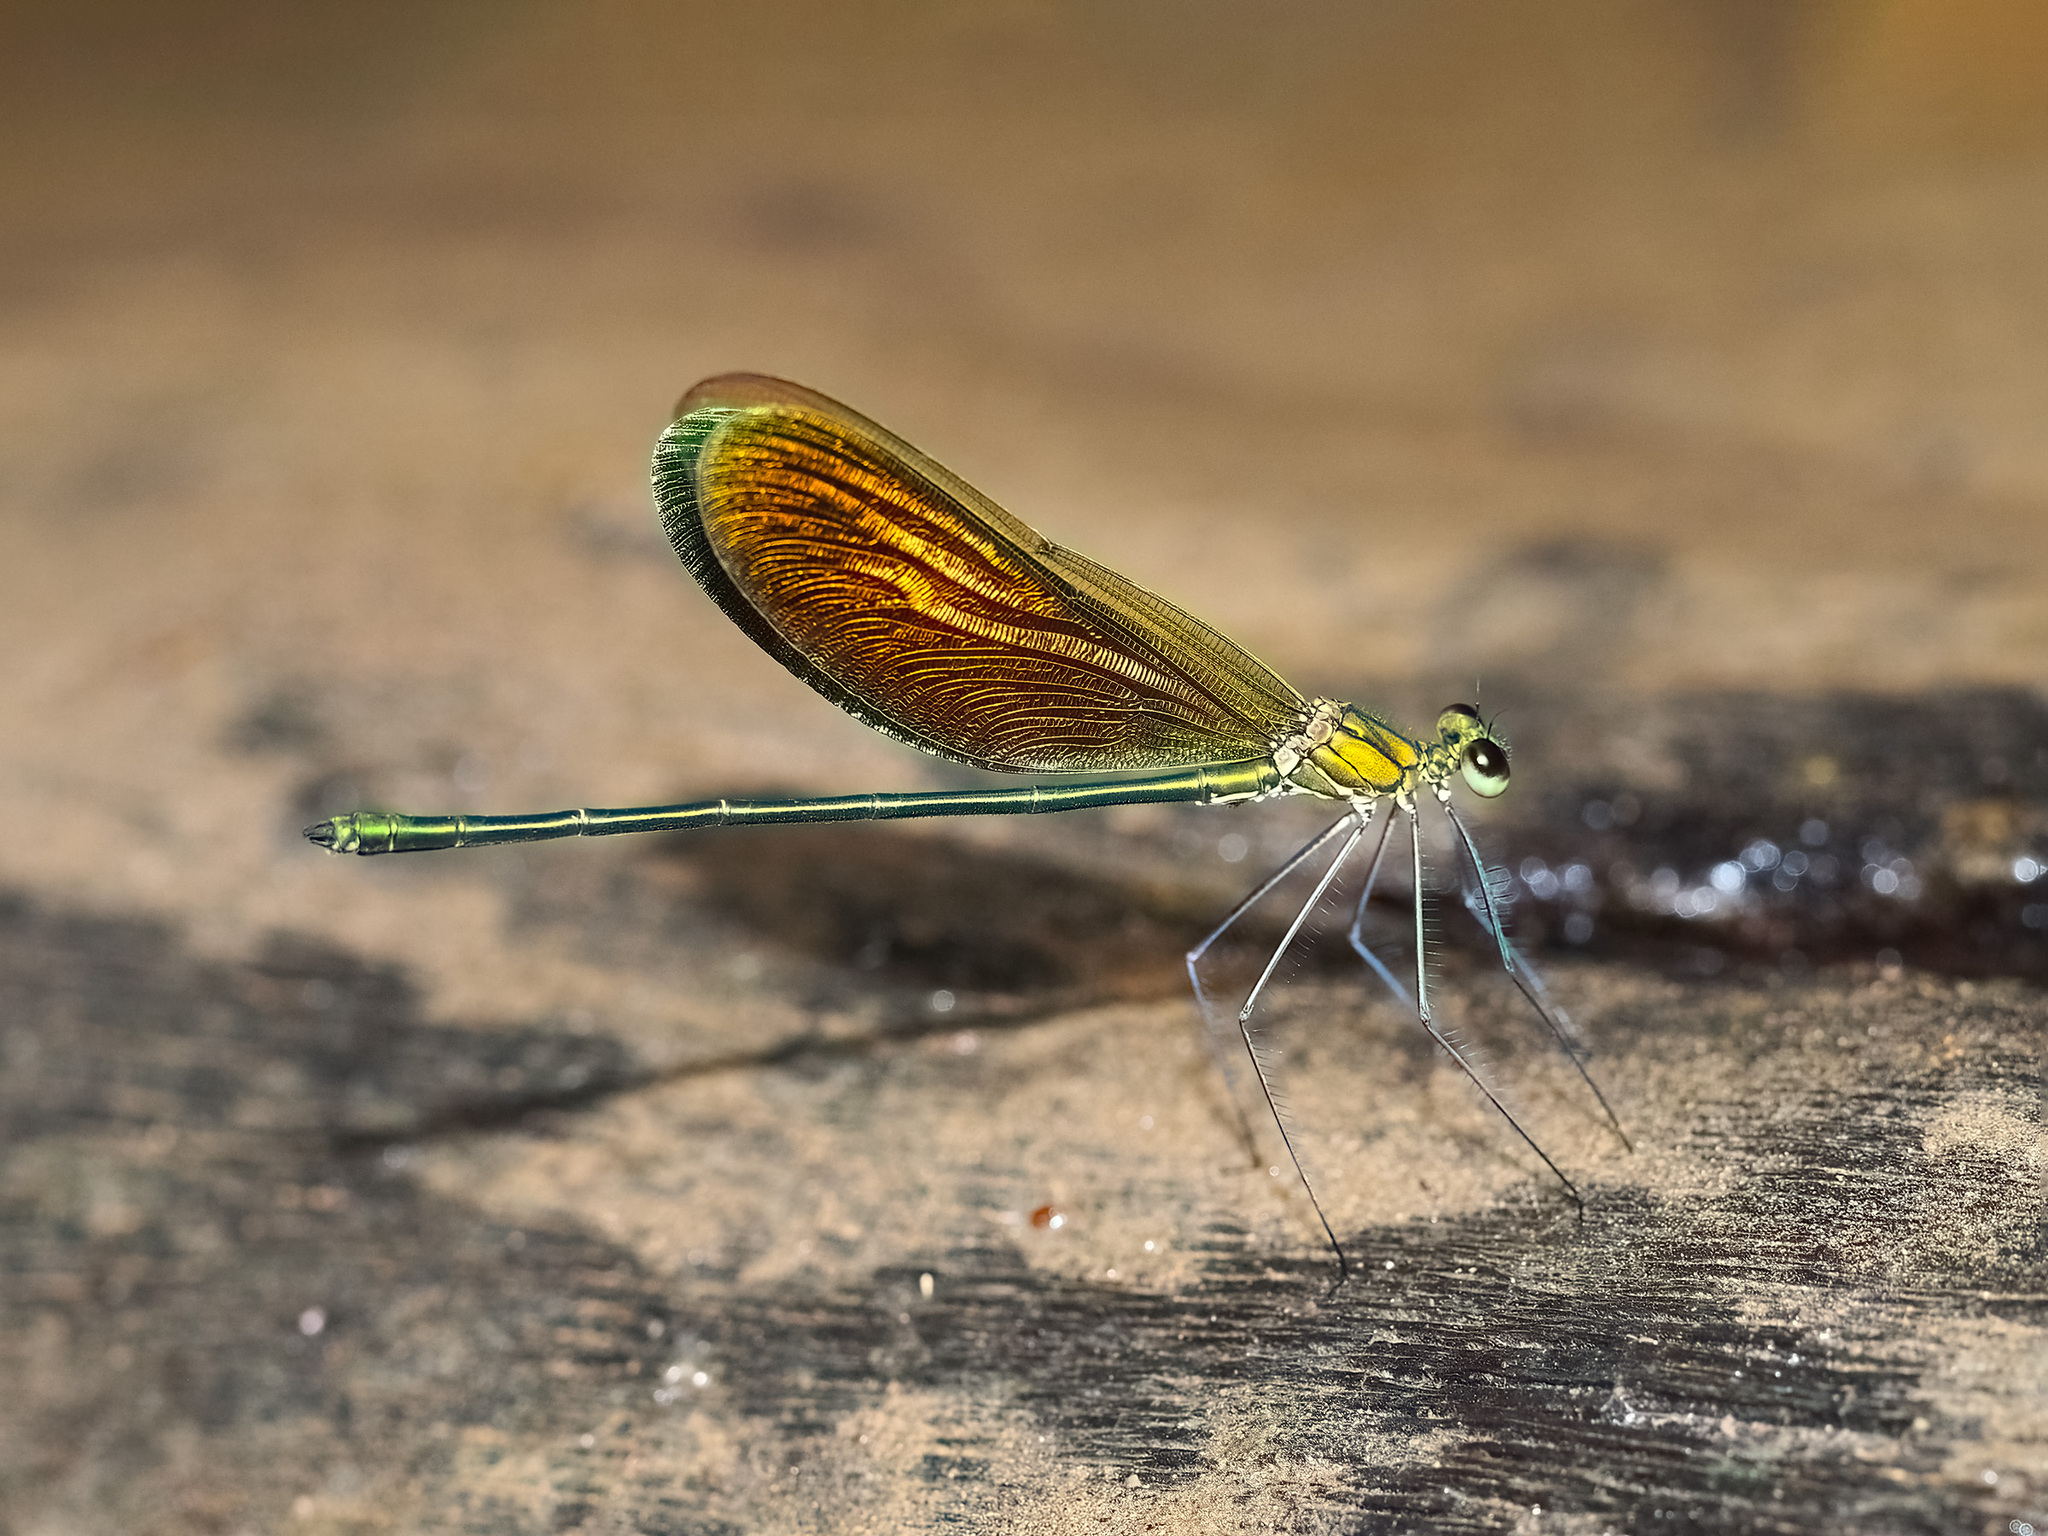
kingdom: Animalia
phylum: Arthropoda
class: Insecta
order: Odonata
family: Calopterygidae
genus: Neurobasis
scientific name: Neurobasis longipes
